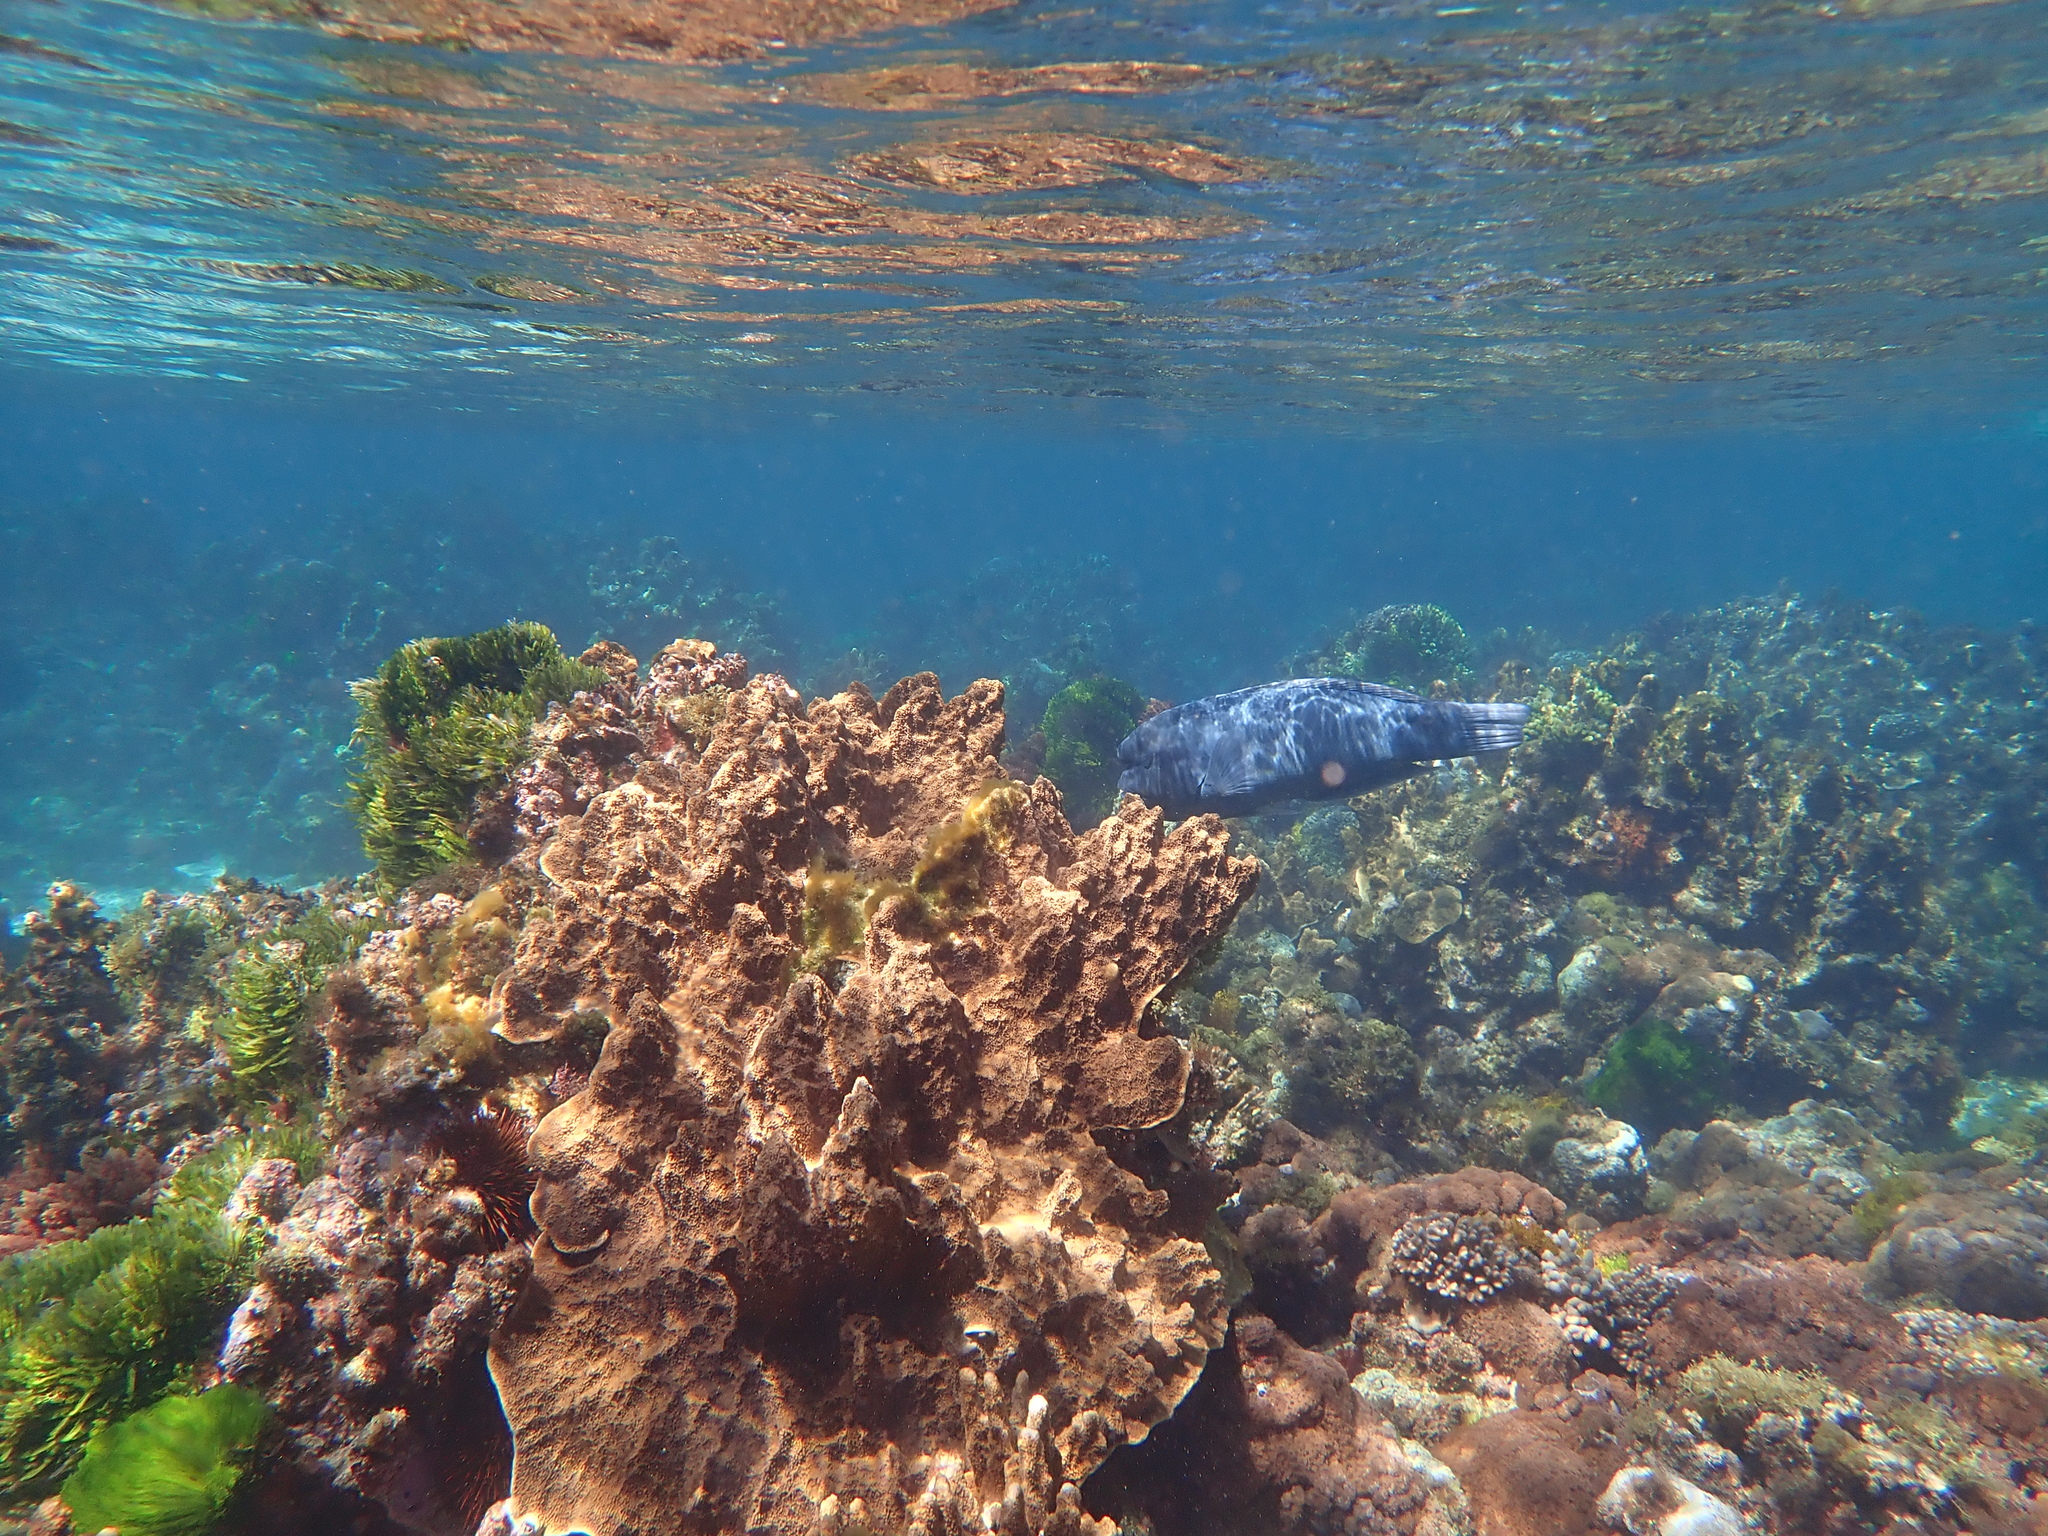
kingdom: Animalia
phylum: Cnidaria
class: Anthozoa
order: Scleractinia
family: Acroporidae
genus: Isopora
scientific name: Isopora elizabethensis
